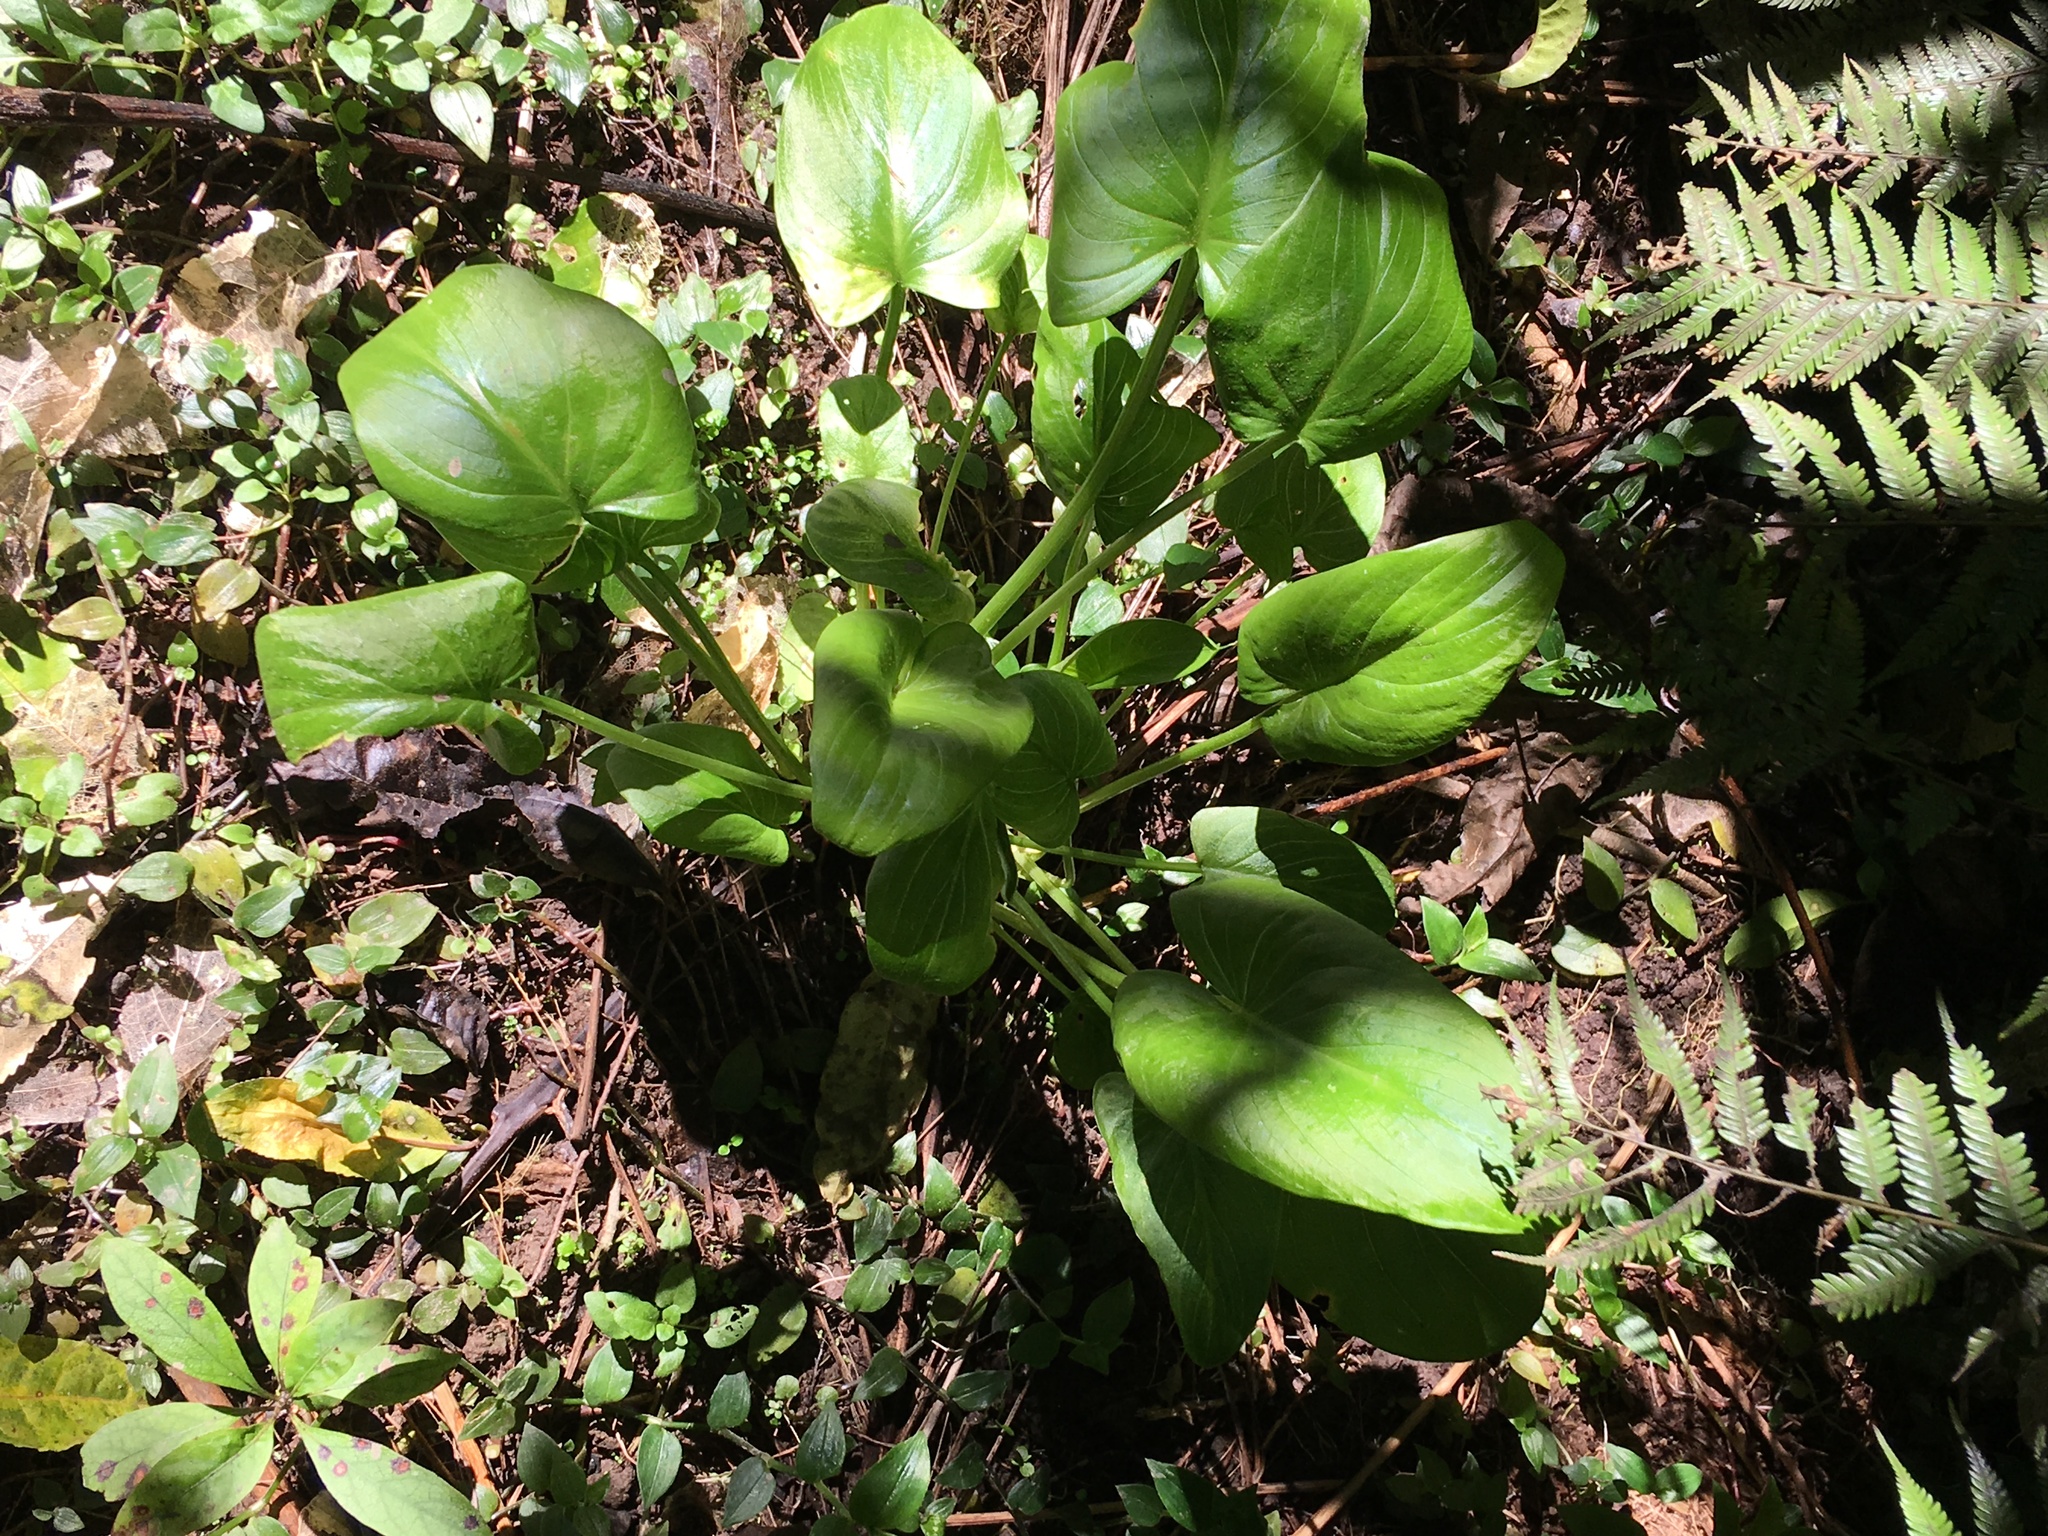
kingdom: Plantae
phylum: Tracheophyta
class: Liliopsida
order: Alismatales
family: Araceae
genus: Zantedeschia
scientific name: Zantedeschia aethiopica
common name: Altar-lily
